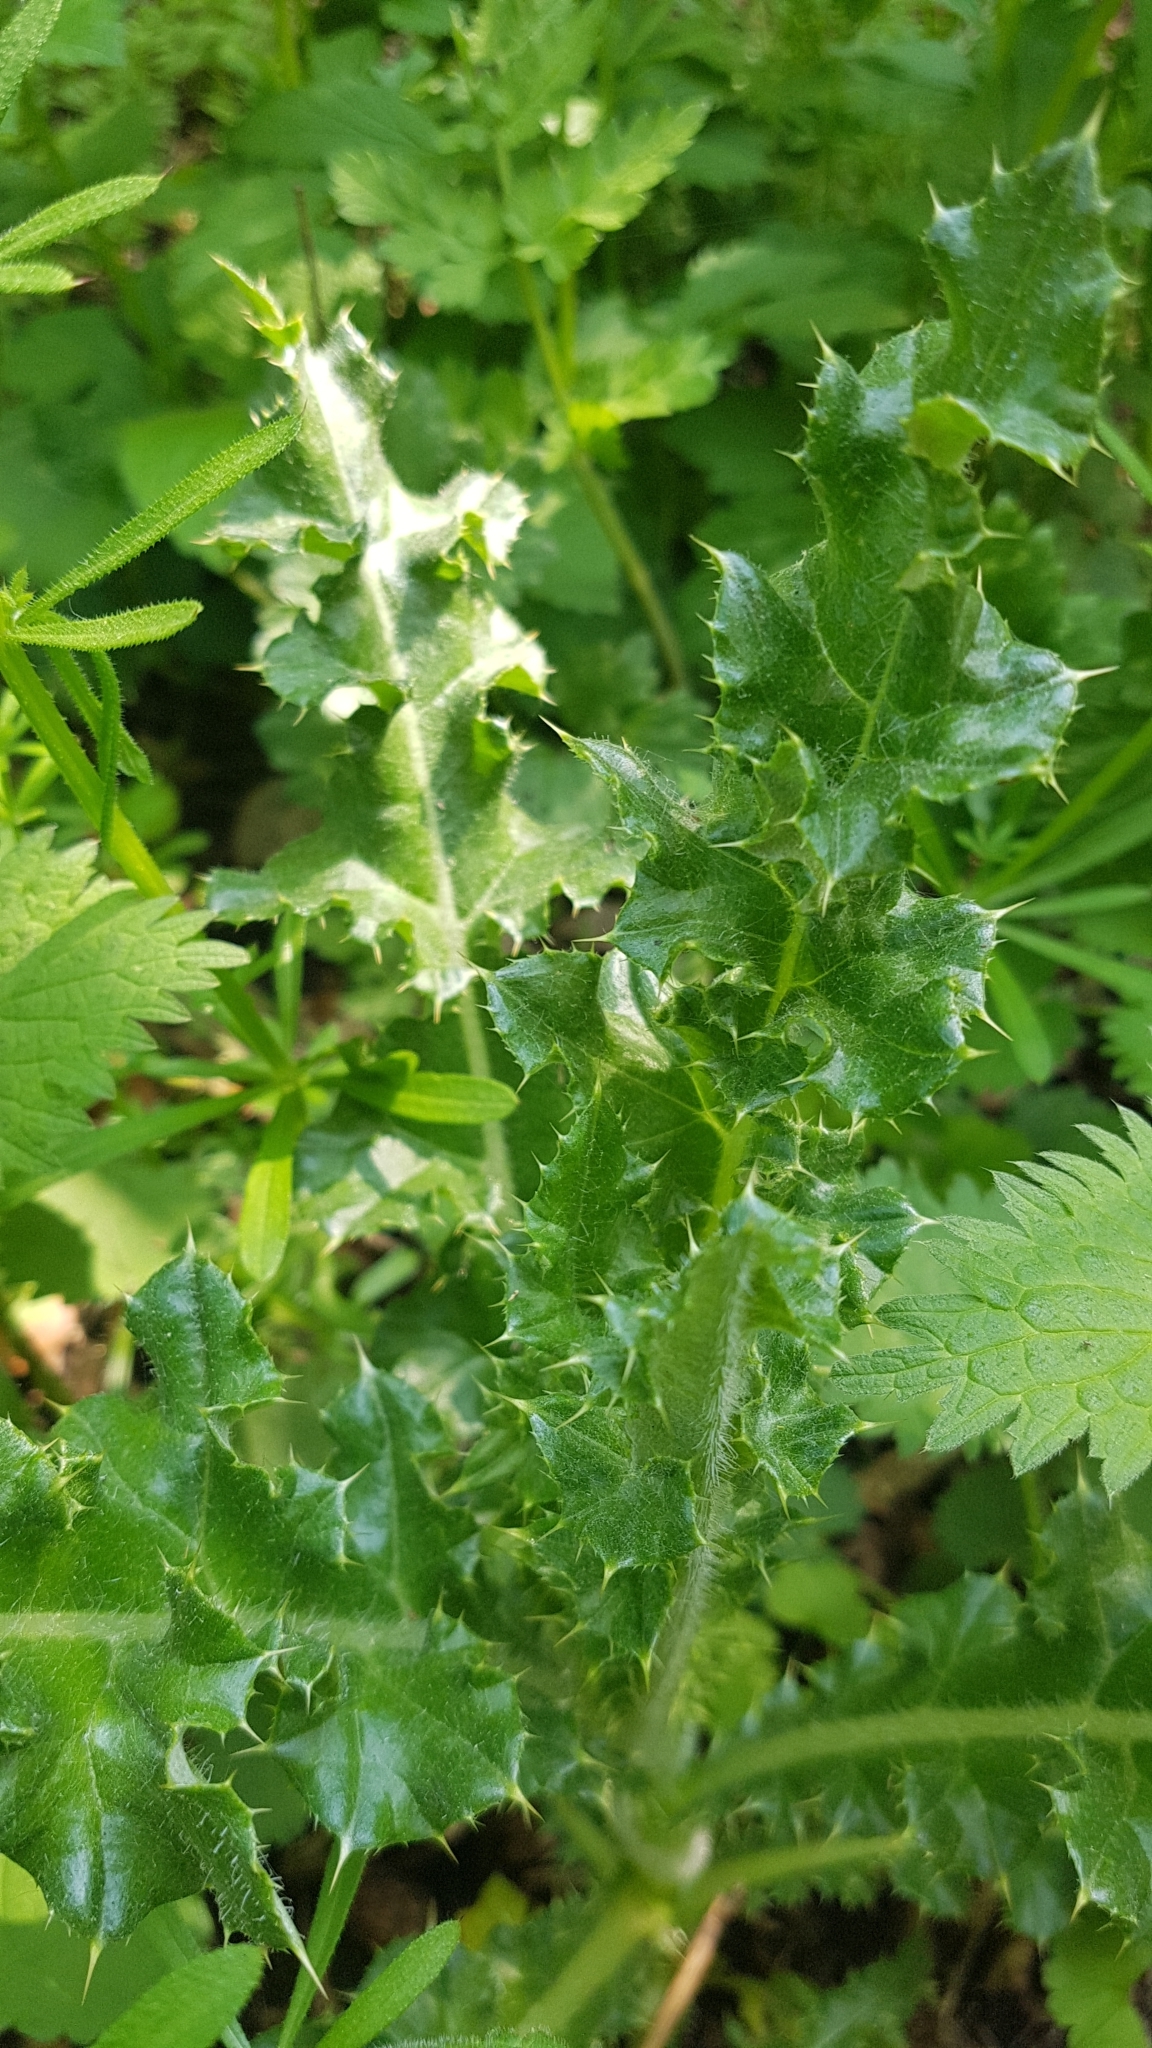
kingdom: Plantae
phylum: Tracheophyta
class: Magnoliopsida
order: Asterales
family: Asteraceae
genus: Cirsium
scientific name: Cirsium arvense
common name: Creeping thistle
